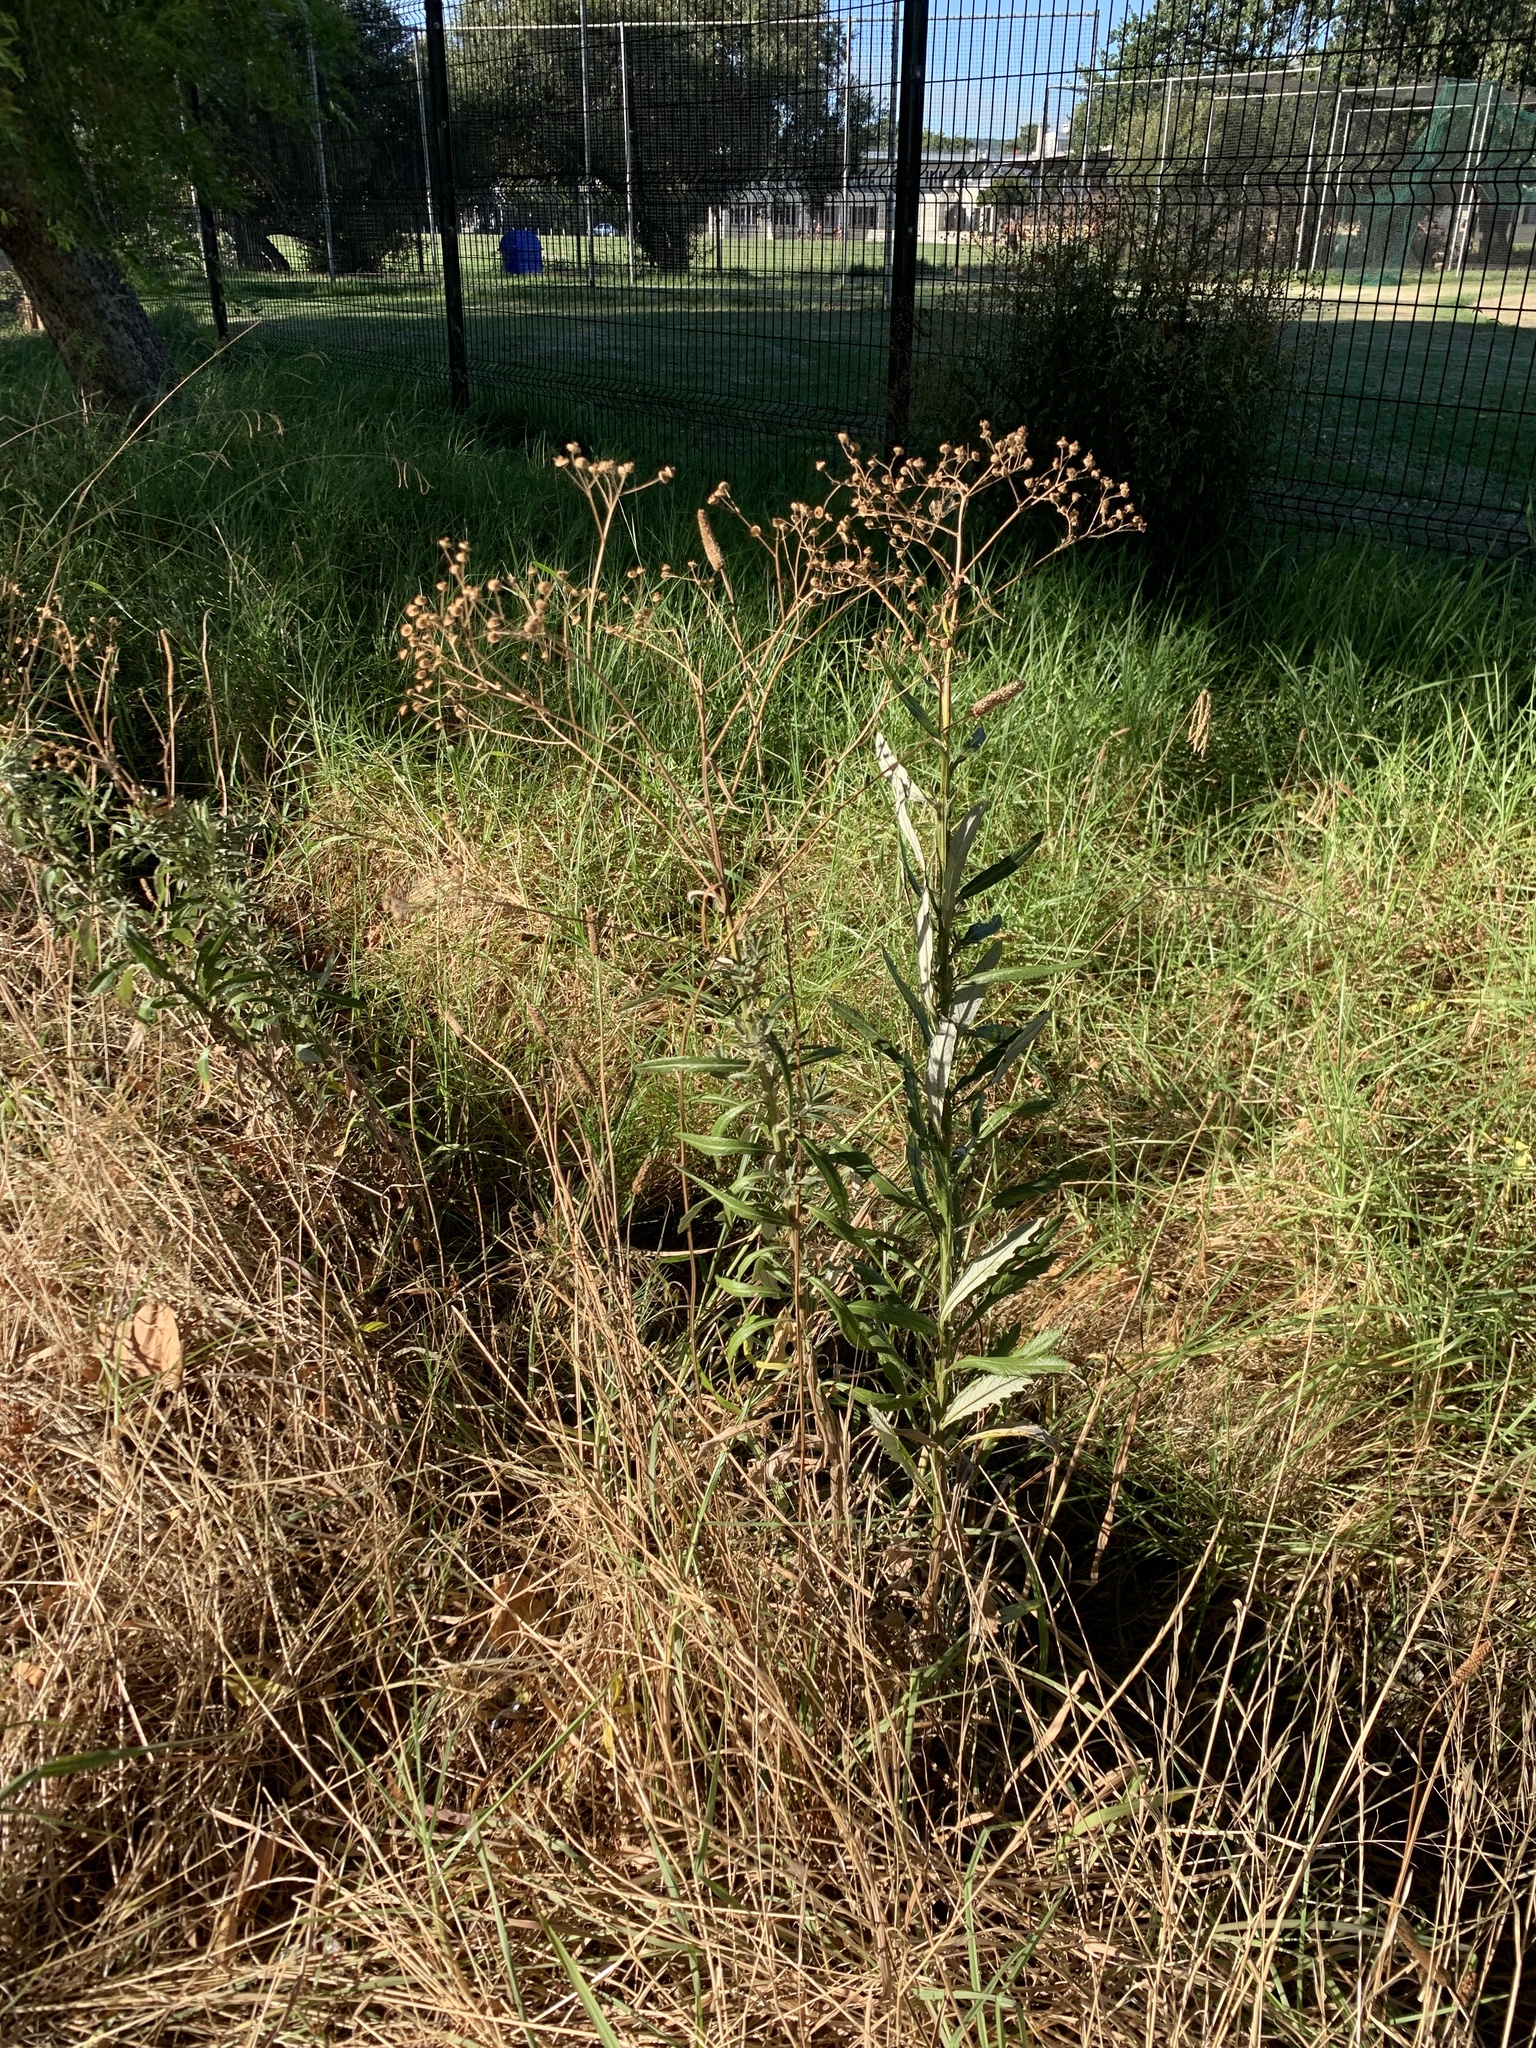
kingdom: Plantae
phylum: Tracheophyta
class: Liliopsida
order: Poales
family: Poaceae
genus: Paspalum
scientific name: Paspalum urvillei
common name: Vasey's grass
